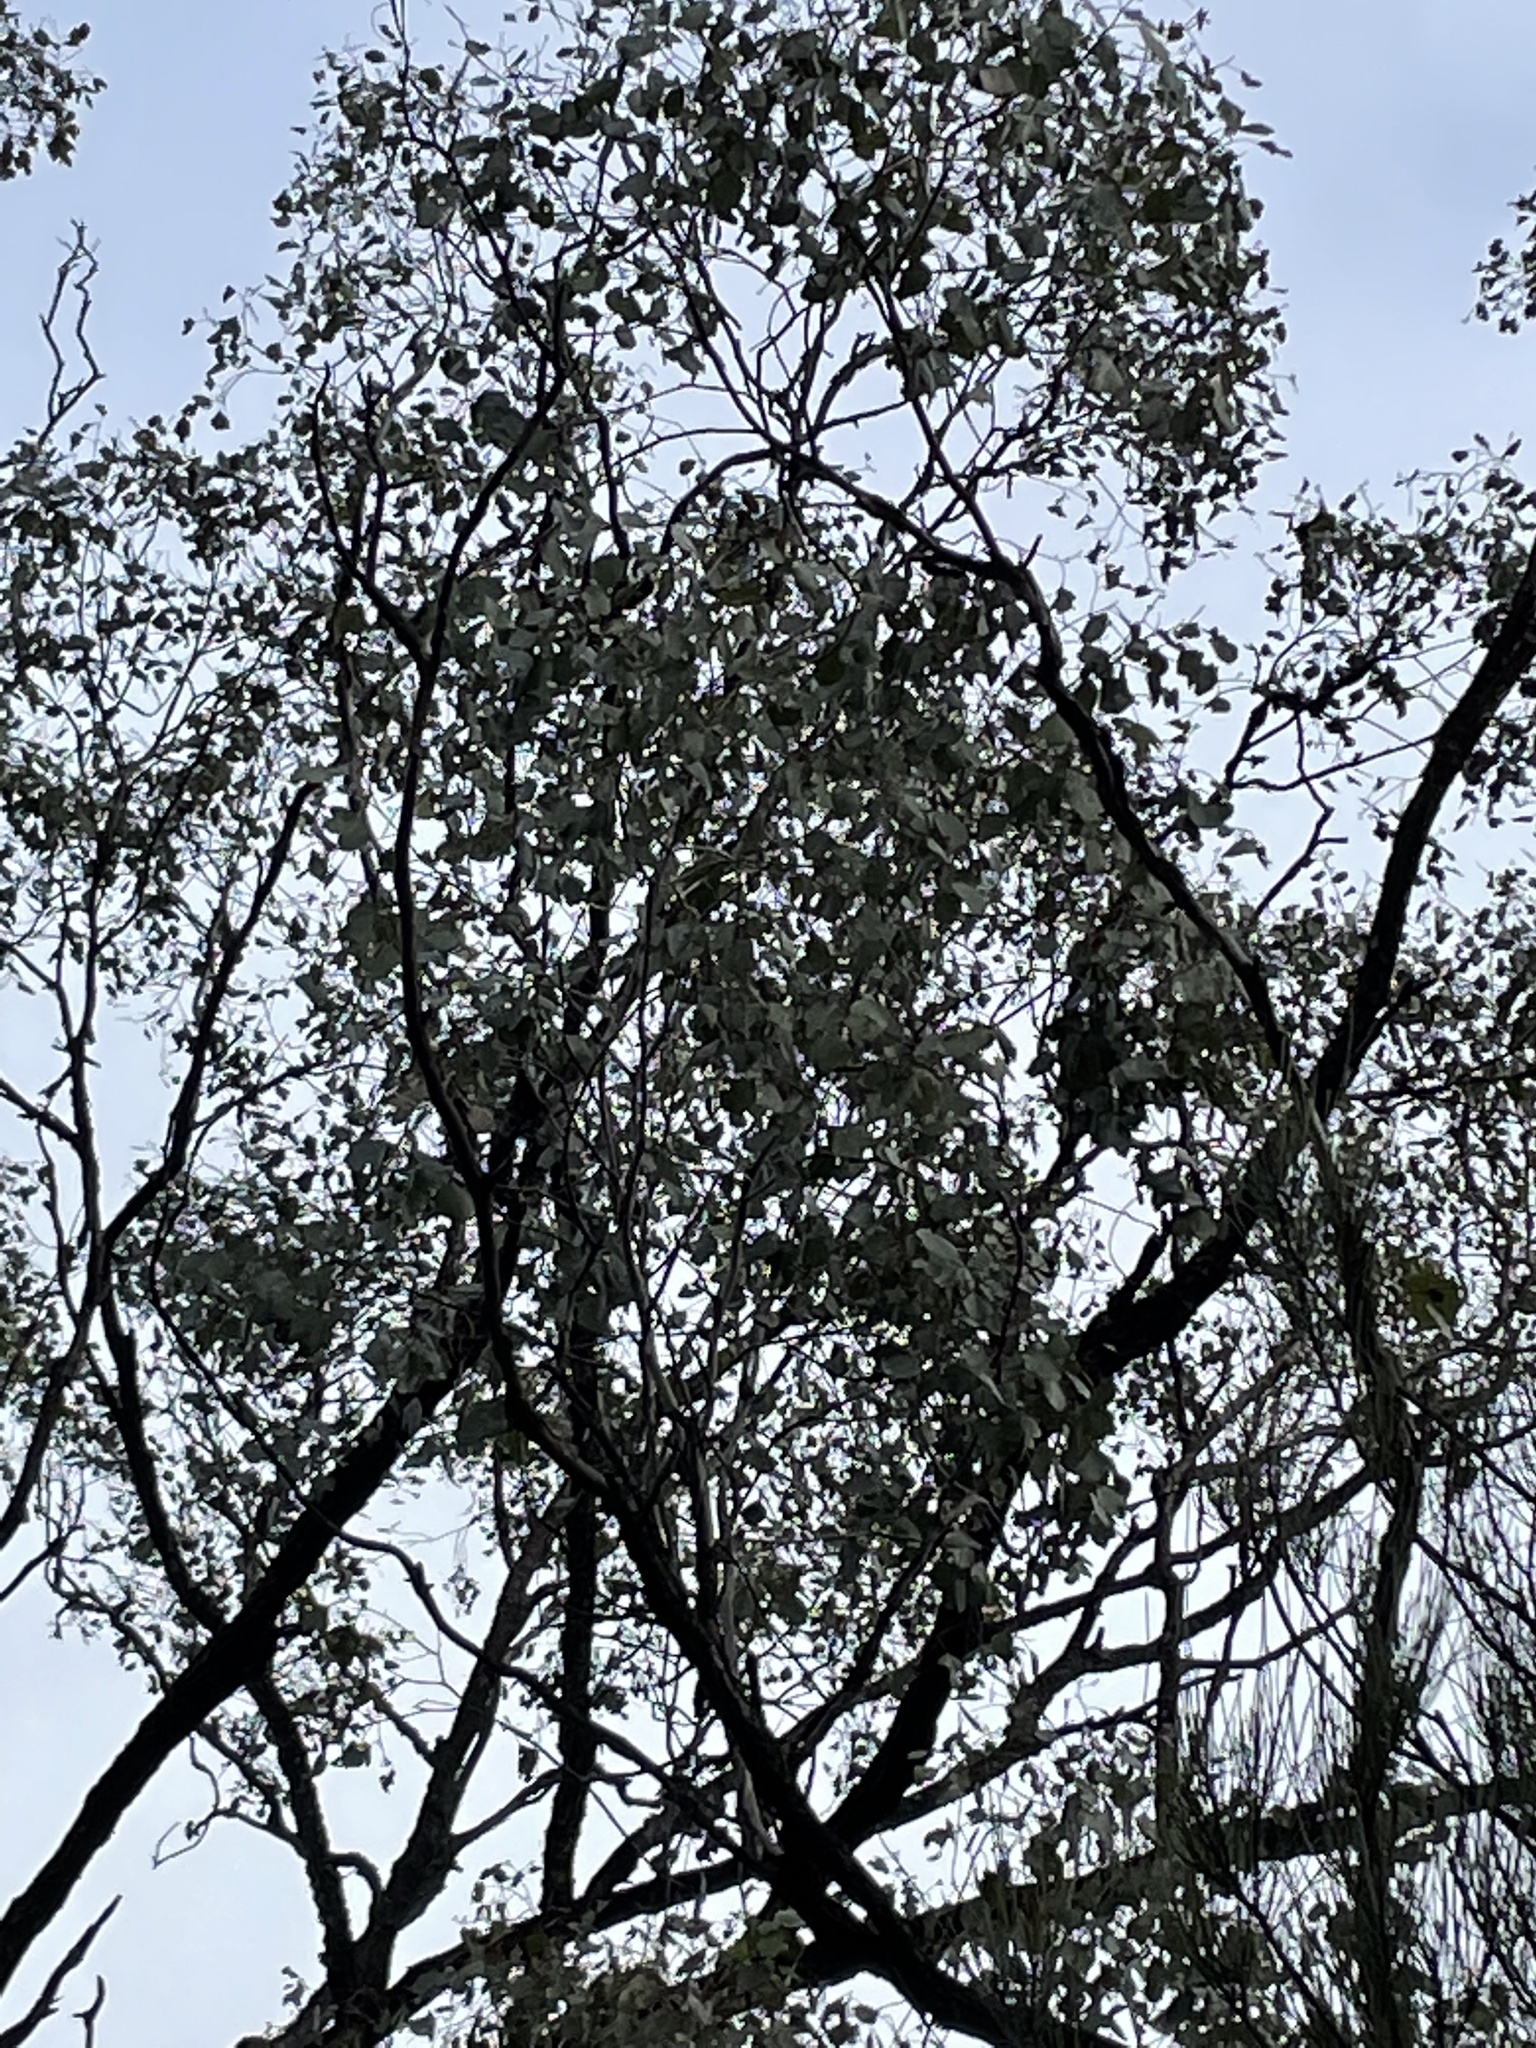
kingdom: Plantae
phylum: Tracheophyta
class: Magnoliopsida
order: Myrtales
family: Myrtaceae
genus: Eucalyptus
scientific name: Eucalyptus populnea
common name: Bimble box
